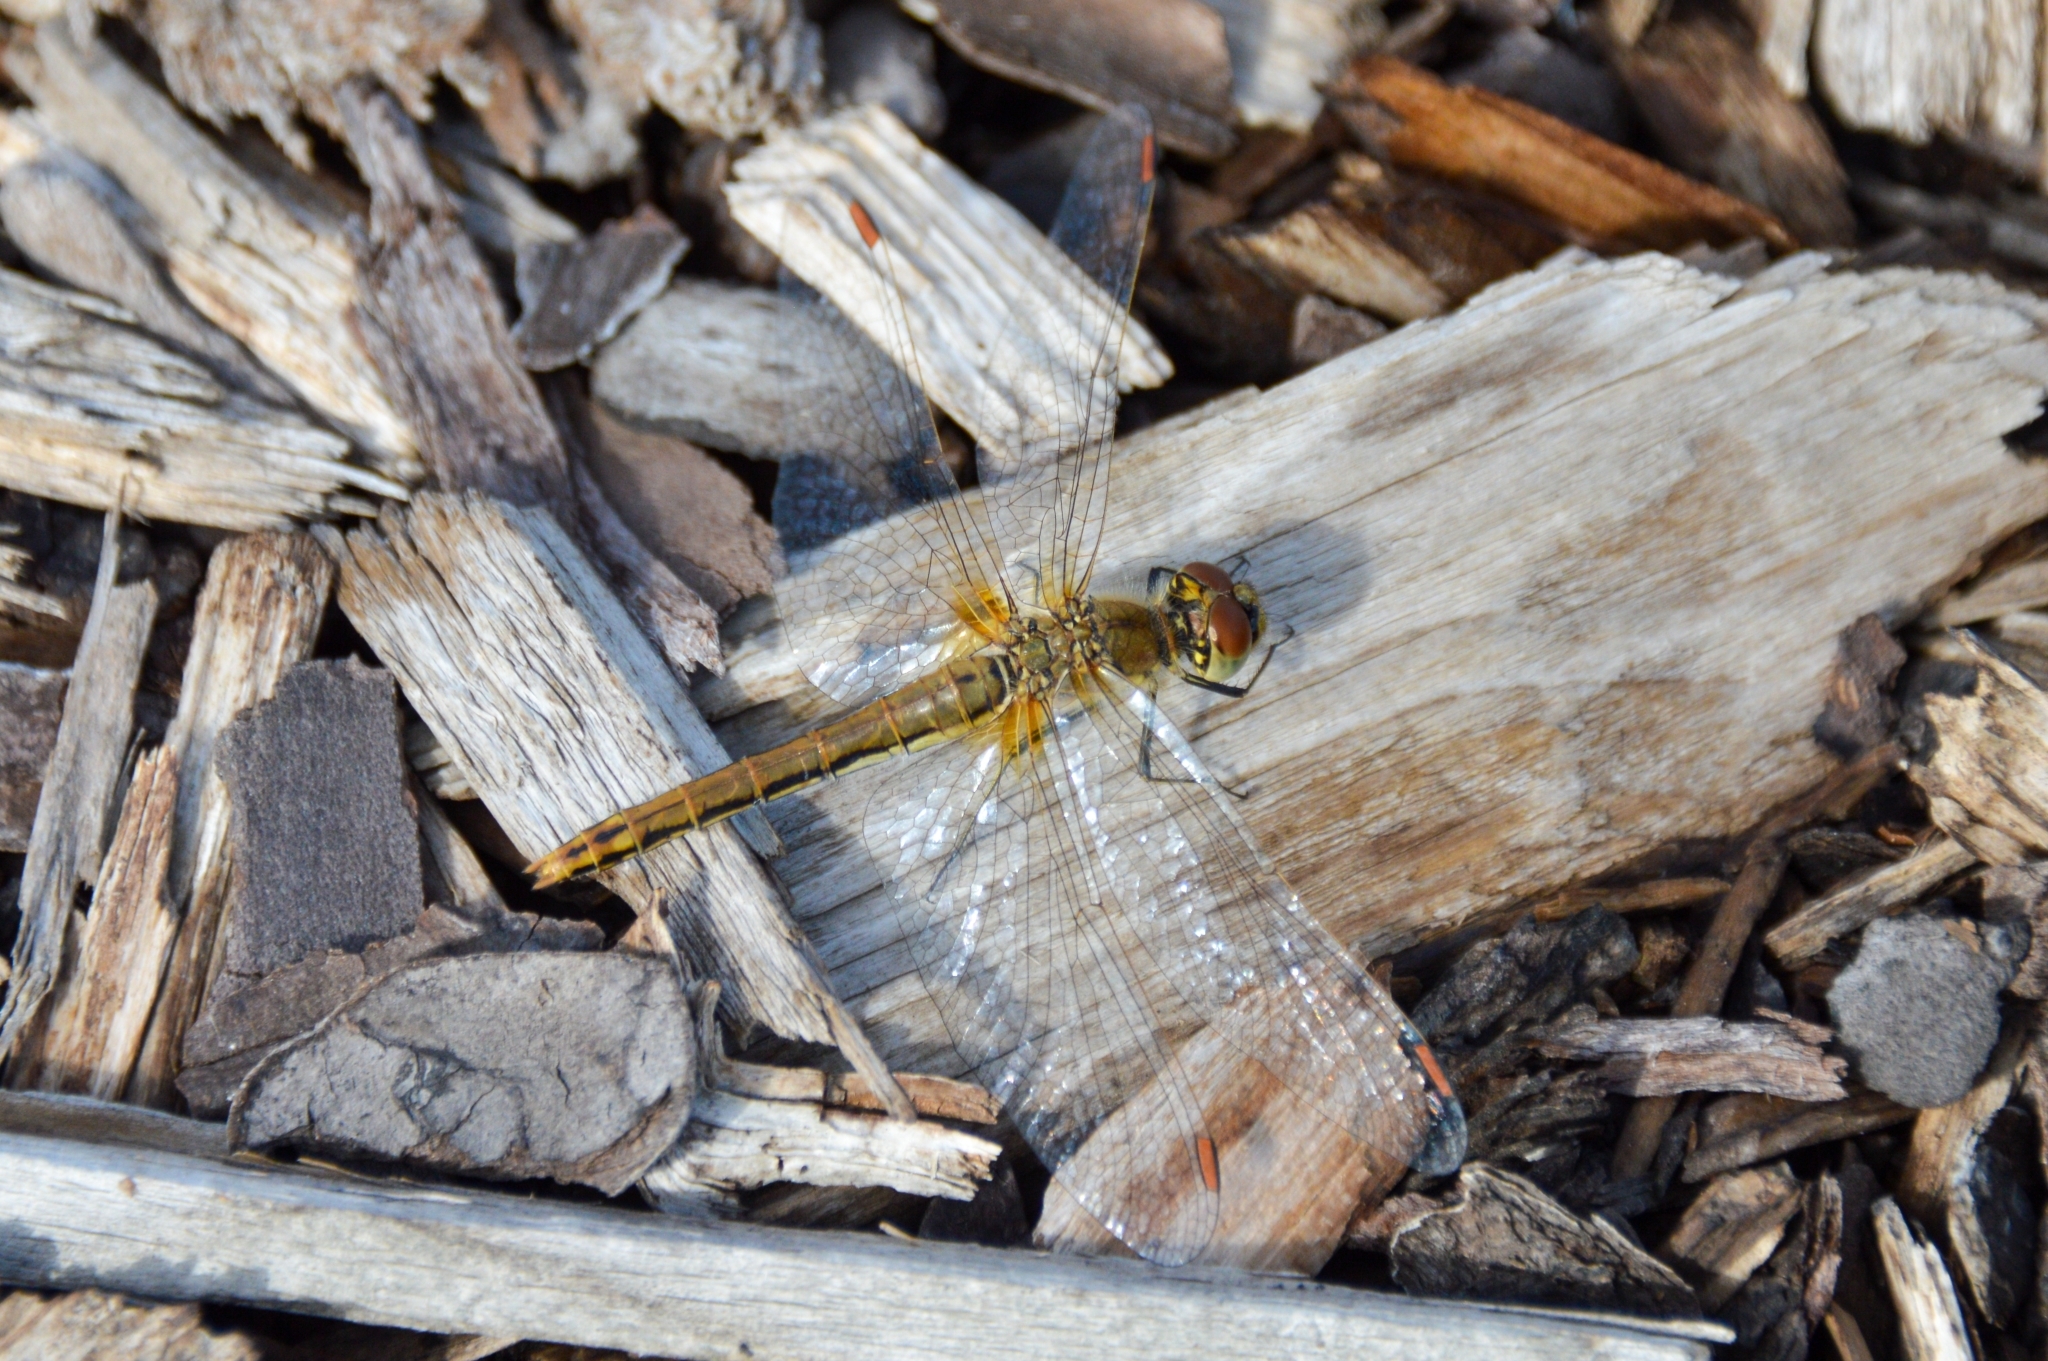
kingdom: Animalia
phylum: Arthropoda
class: Insecta
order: Odonata
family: Libellulidae
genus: Sympetrum
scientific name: Sympetrum flaveolum
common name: Yellow-winged darter
